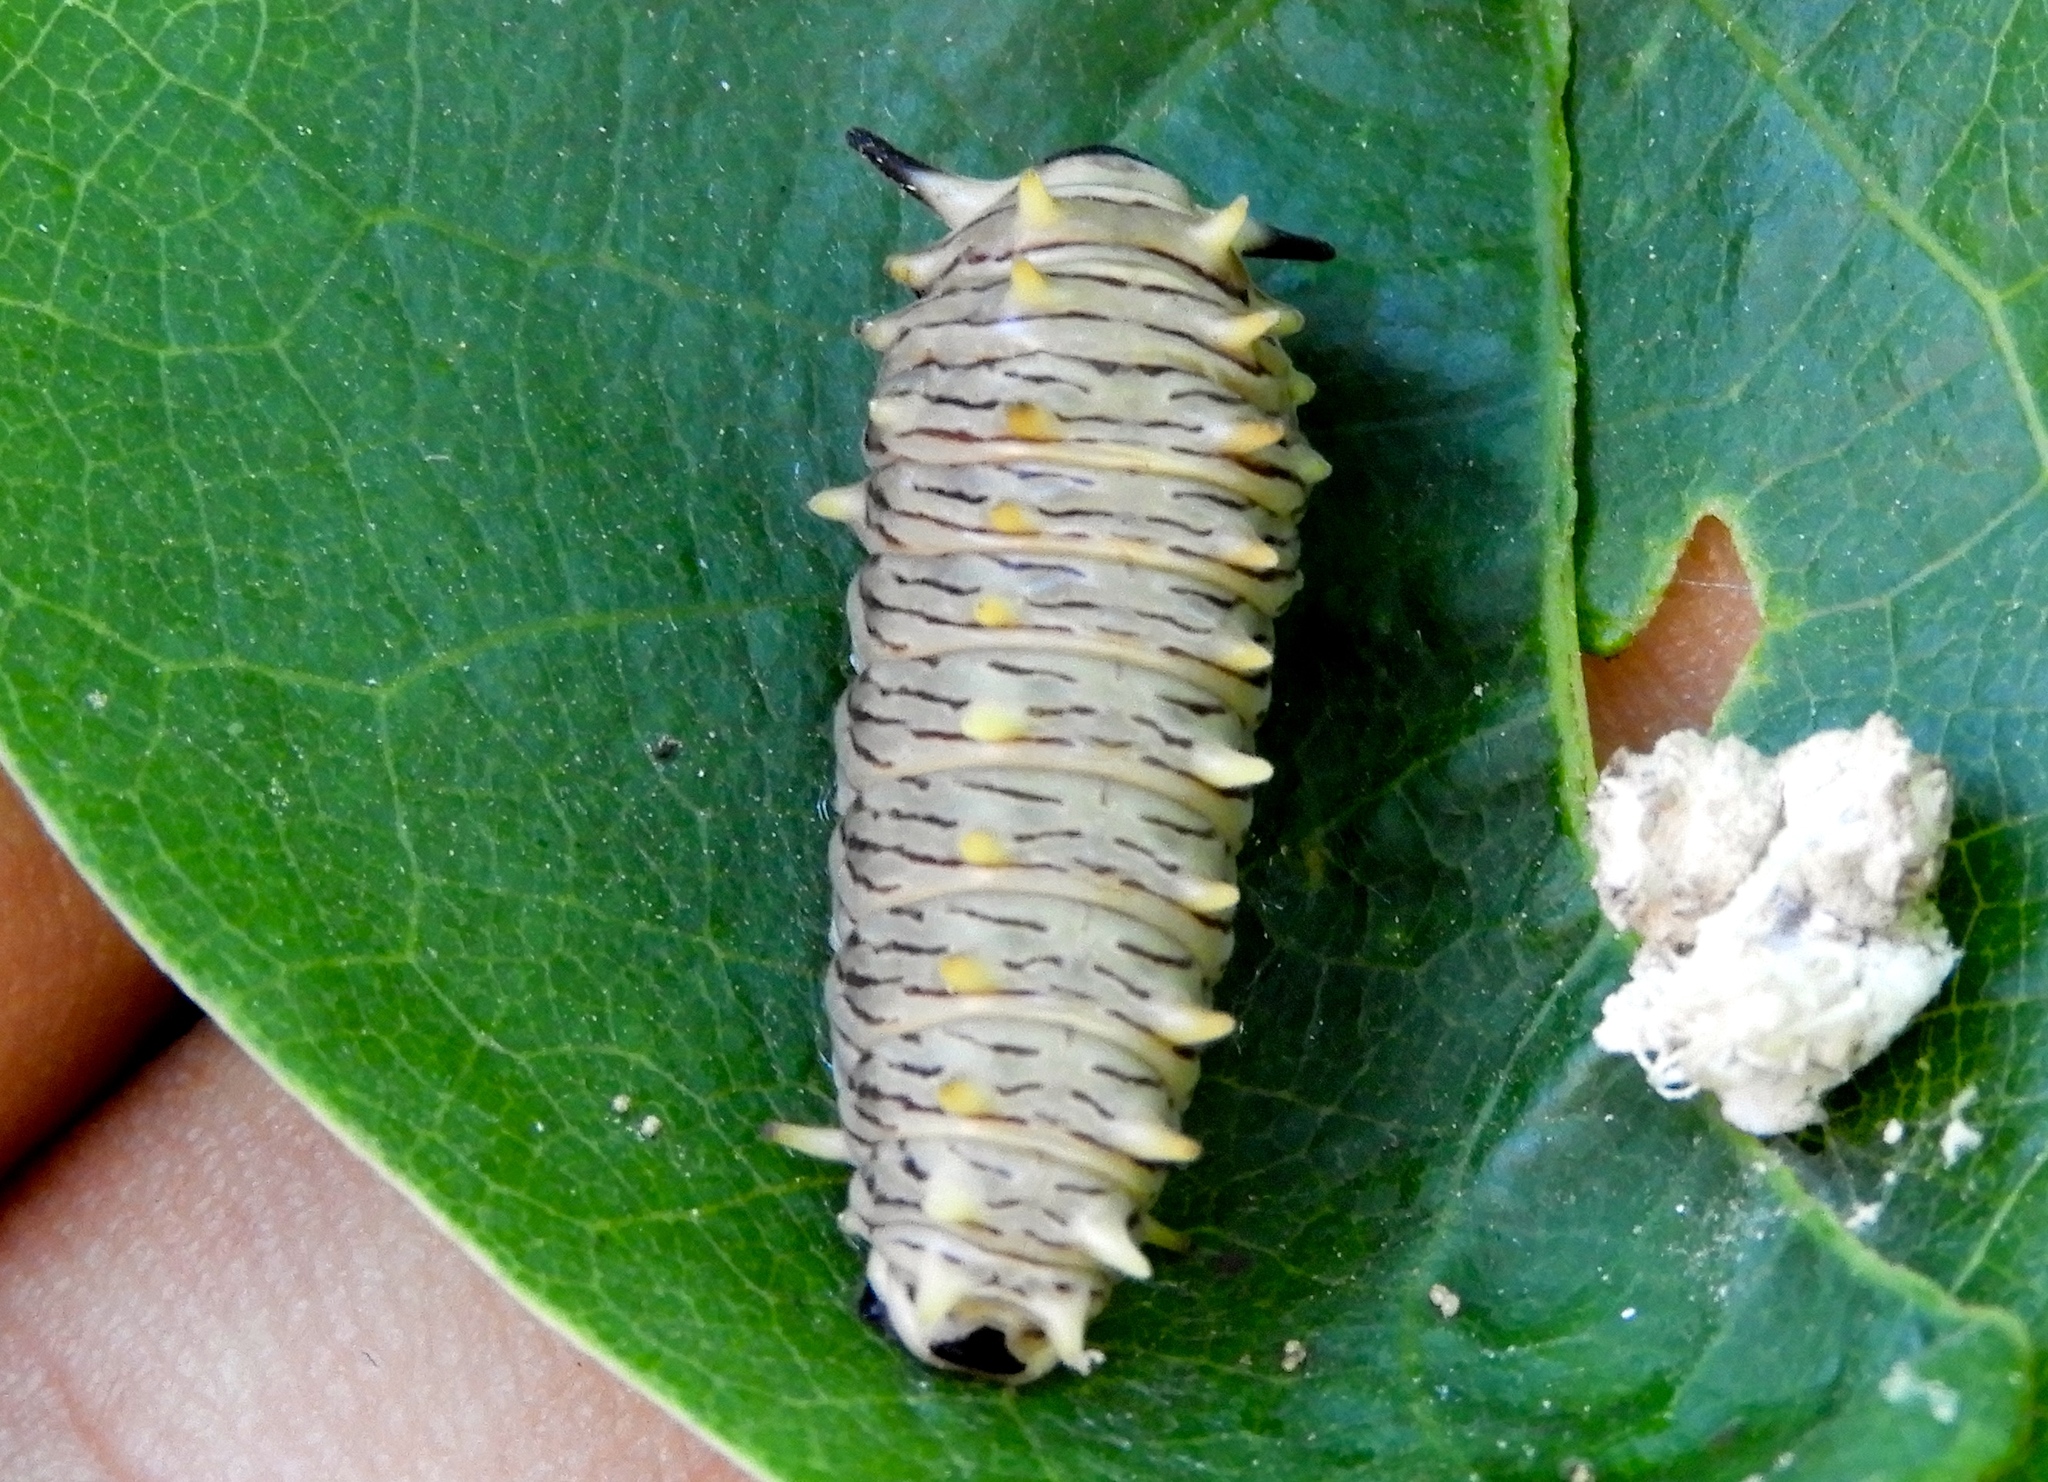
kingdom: Animalia
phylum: Arthropoda
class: Insecta
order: Lepidoptera
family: Papilionidae
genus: Battus
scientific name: Battus polydamas
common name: Polydamas swallowtail
